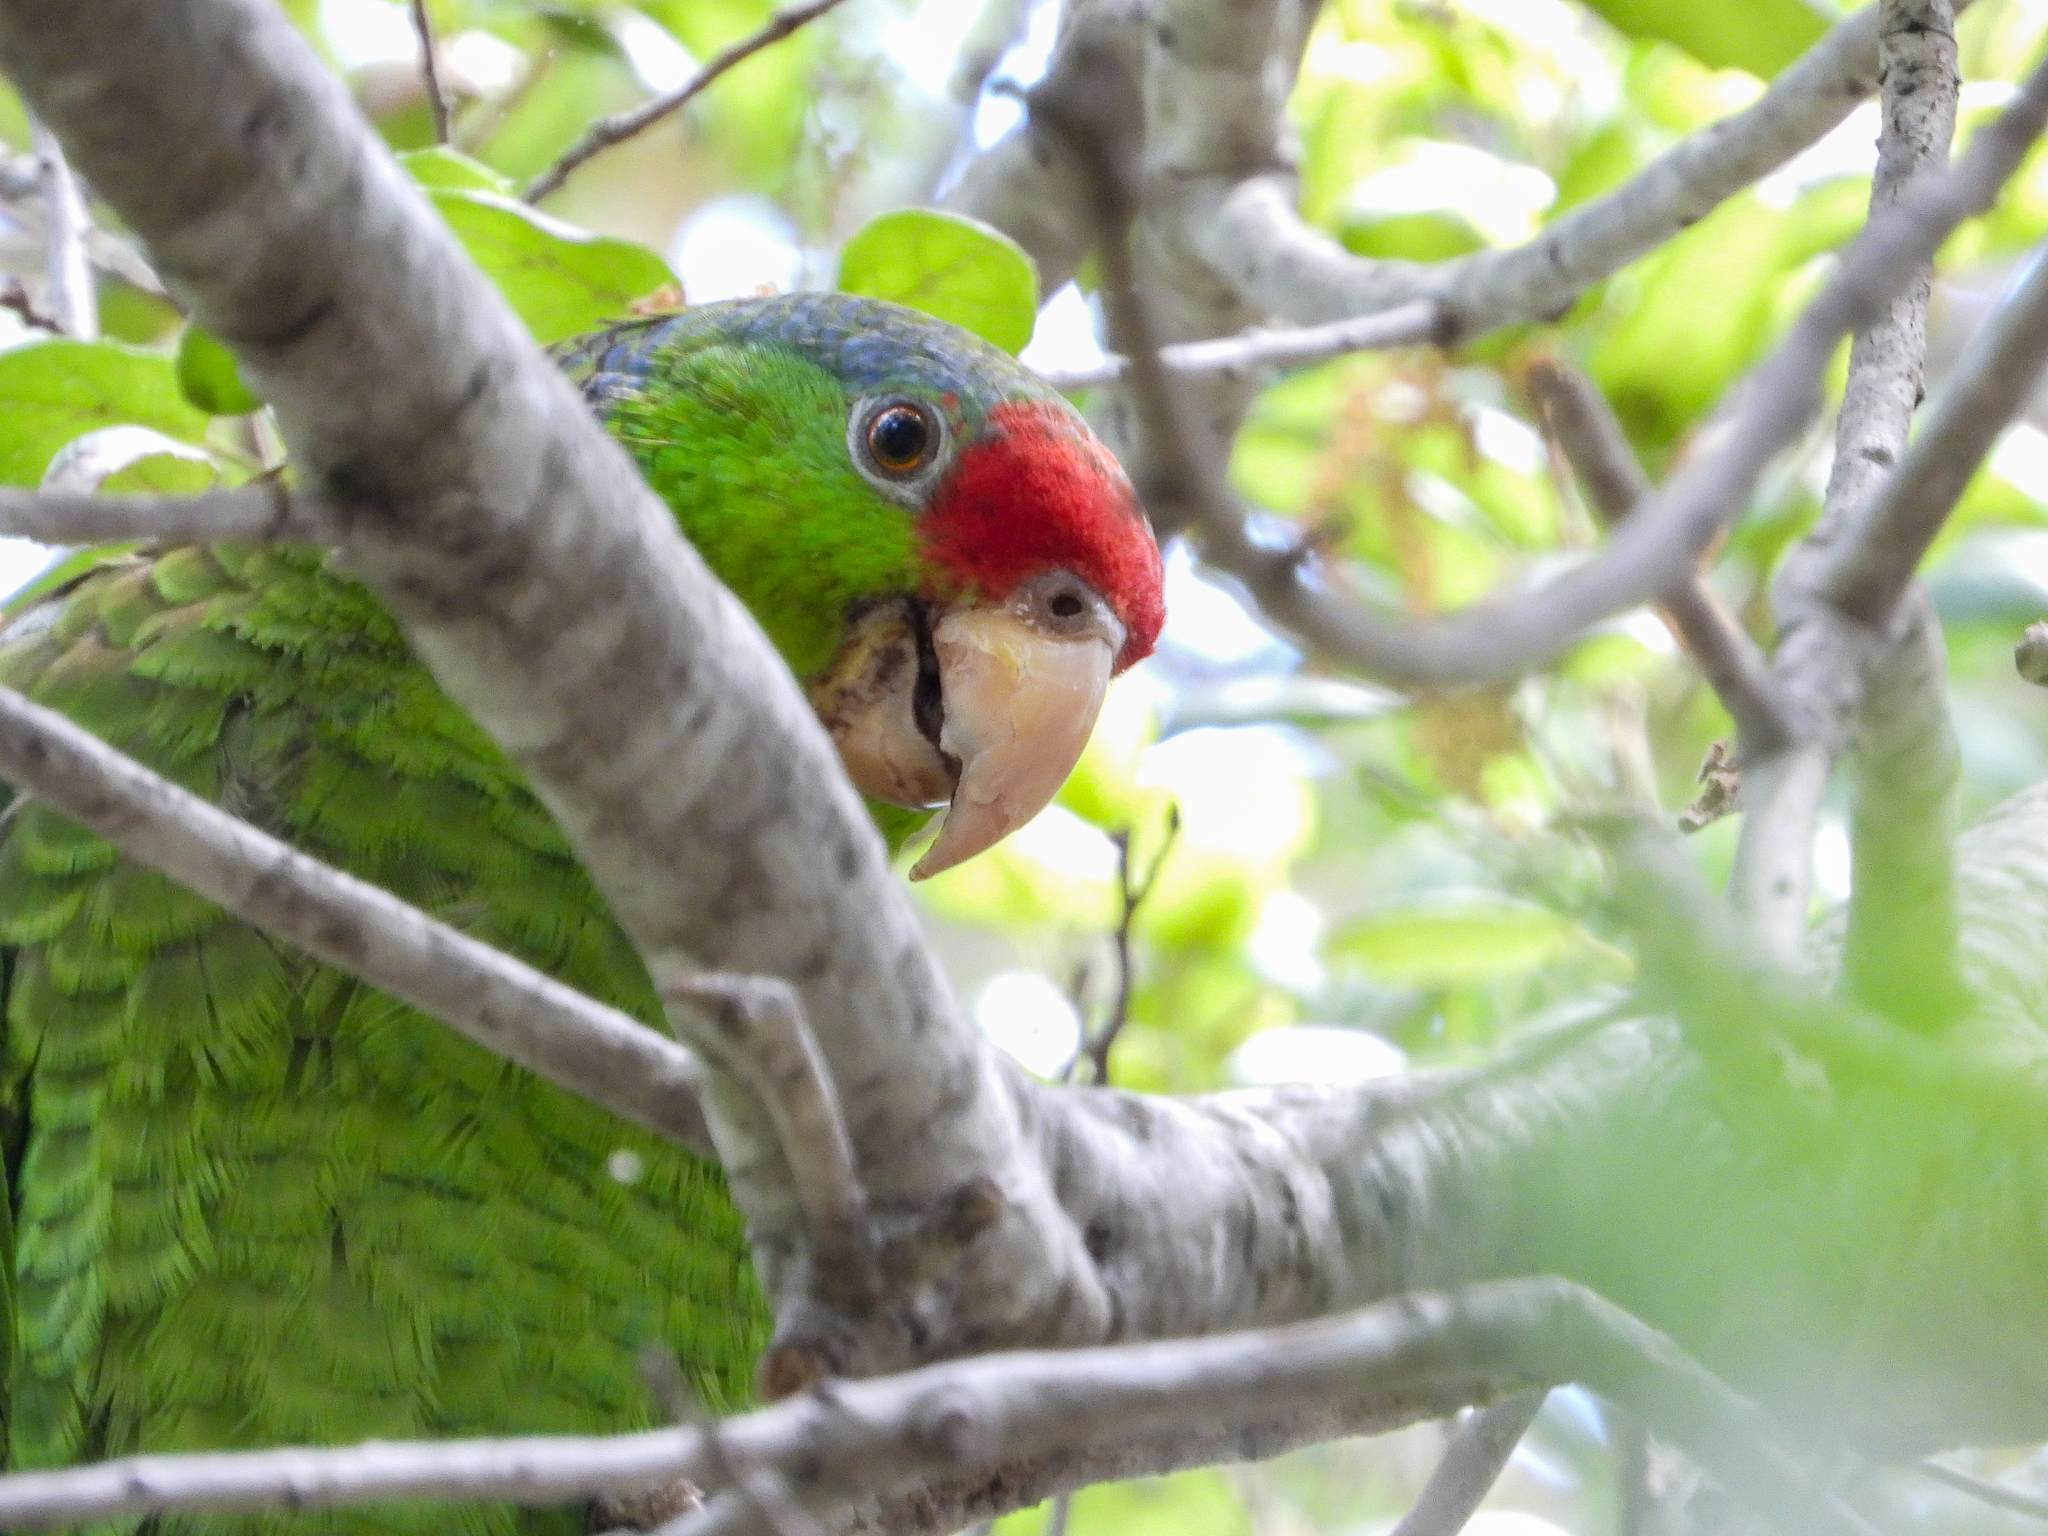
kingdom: Animalia
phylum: Chordata
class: Aves
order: Psittaciformes
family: Psittacidae
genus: Amazona
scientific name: Amazona
